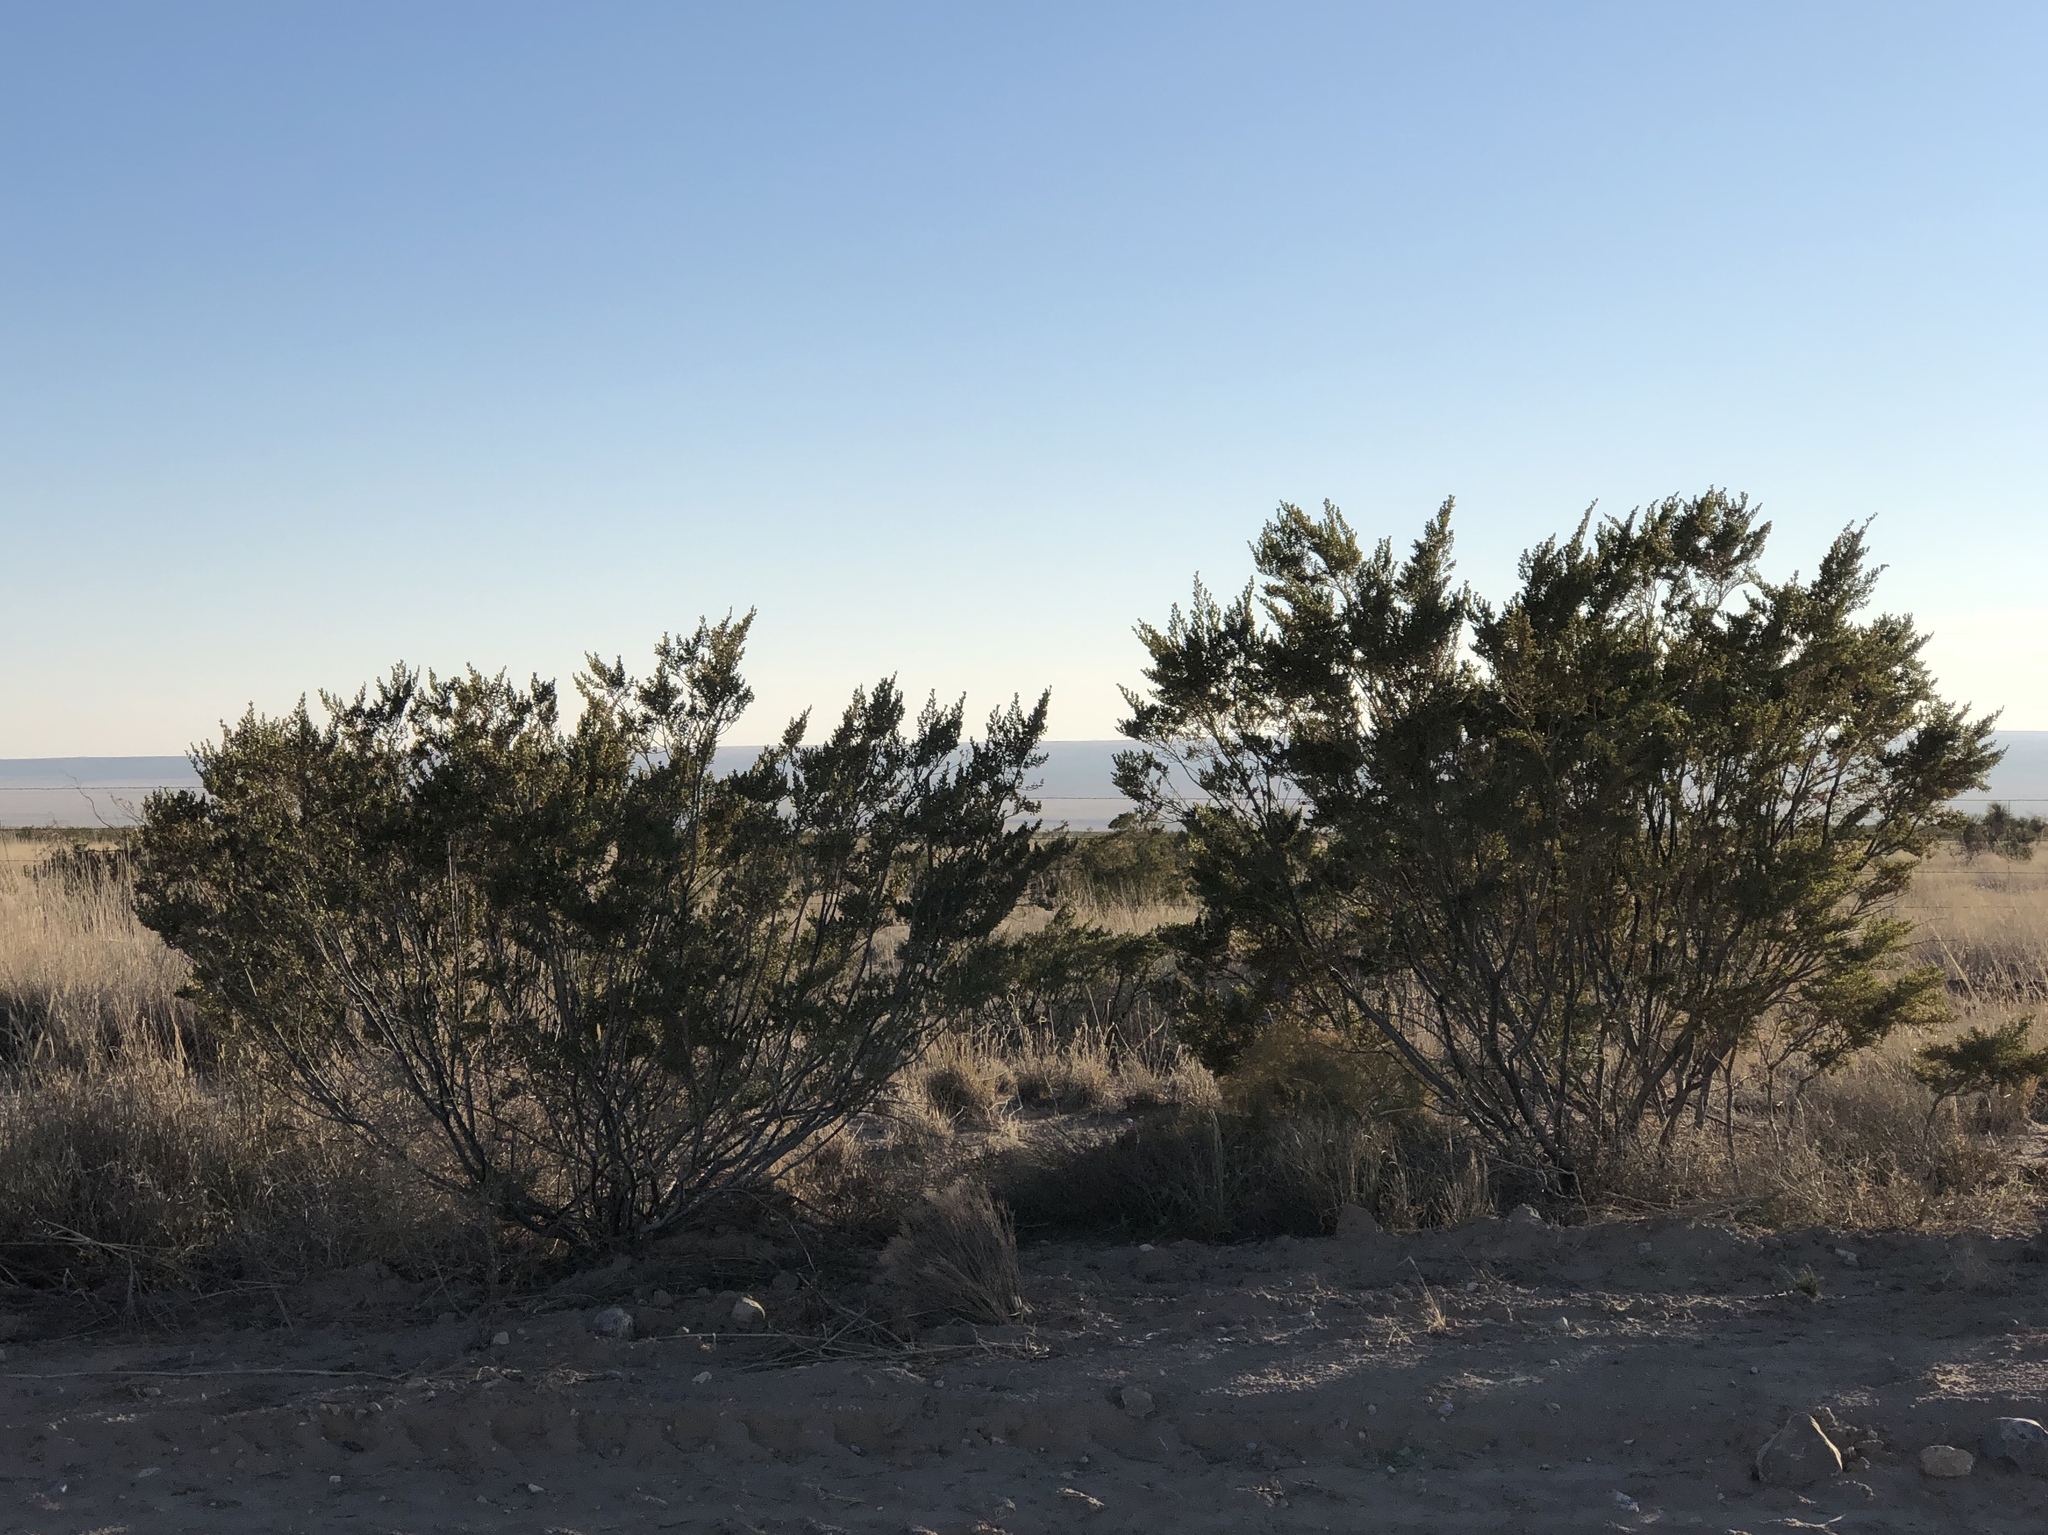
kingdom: Plantae
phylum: Tracheophyta
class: Magnoliopsida
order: Zygophyllales
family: Zygophyllaceae
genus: Larrea
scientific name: Larrea tridentata
